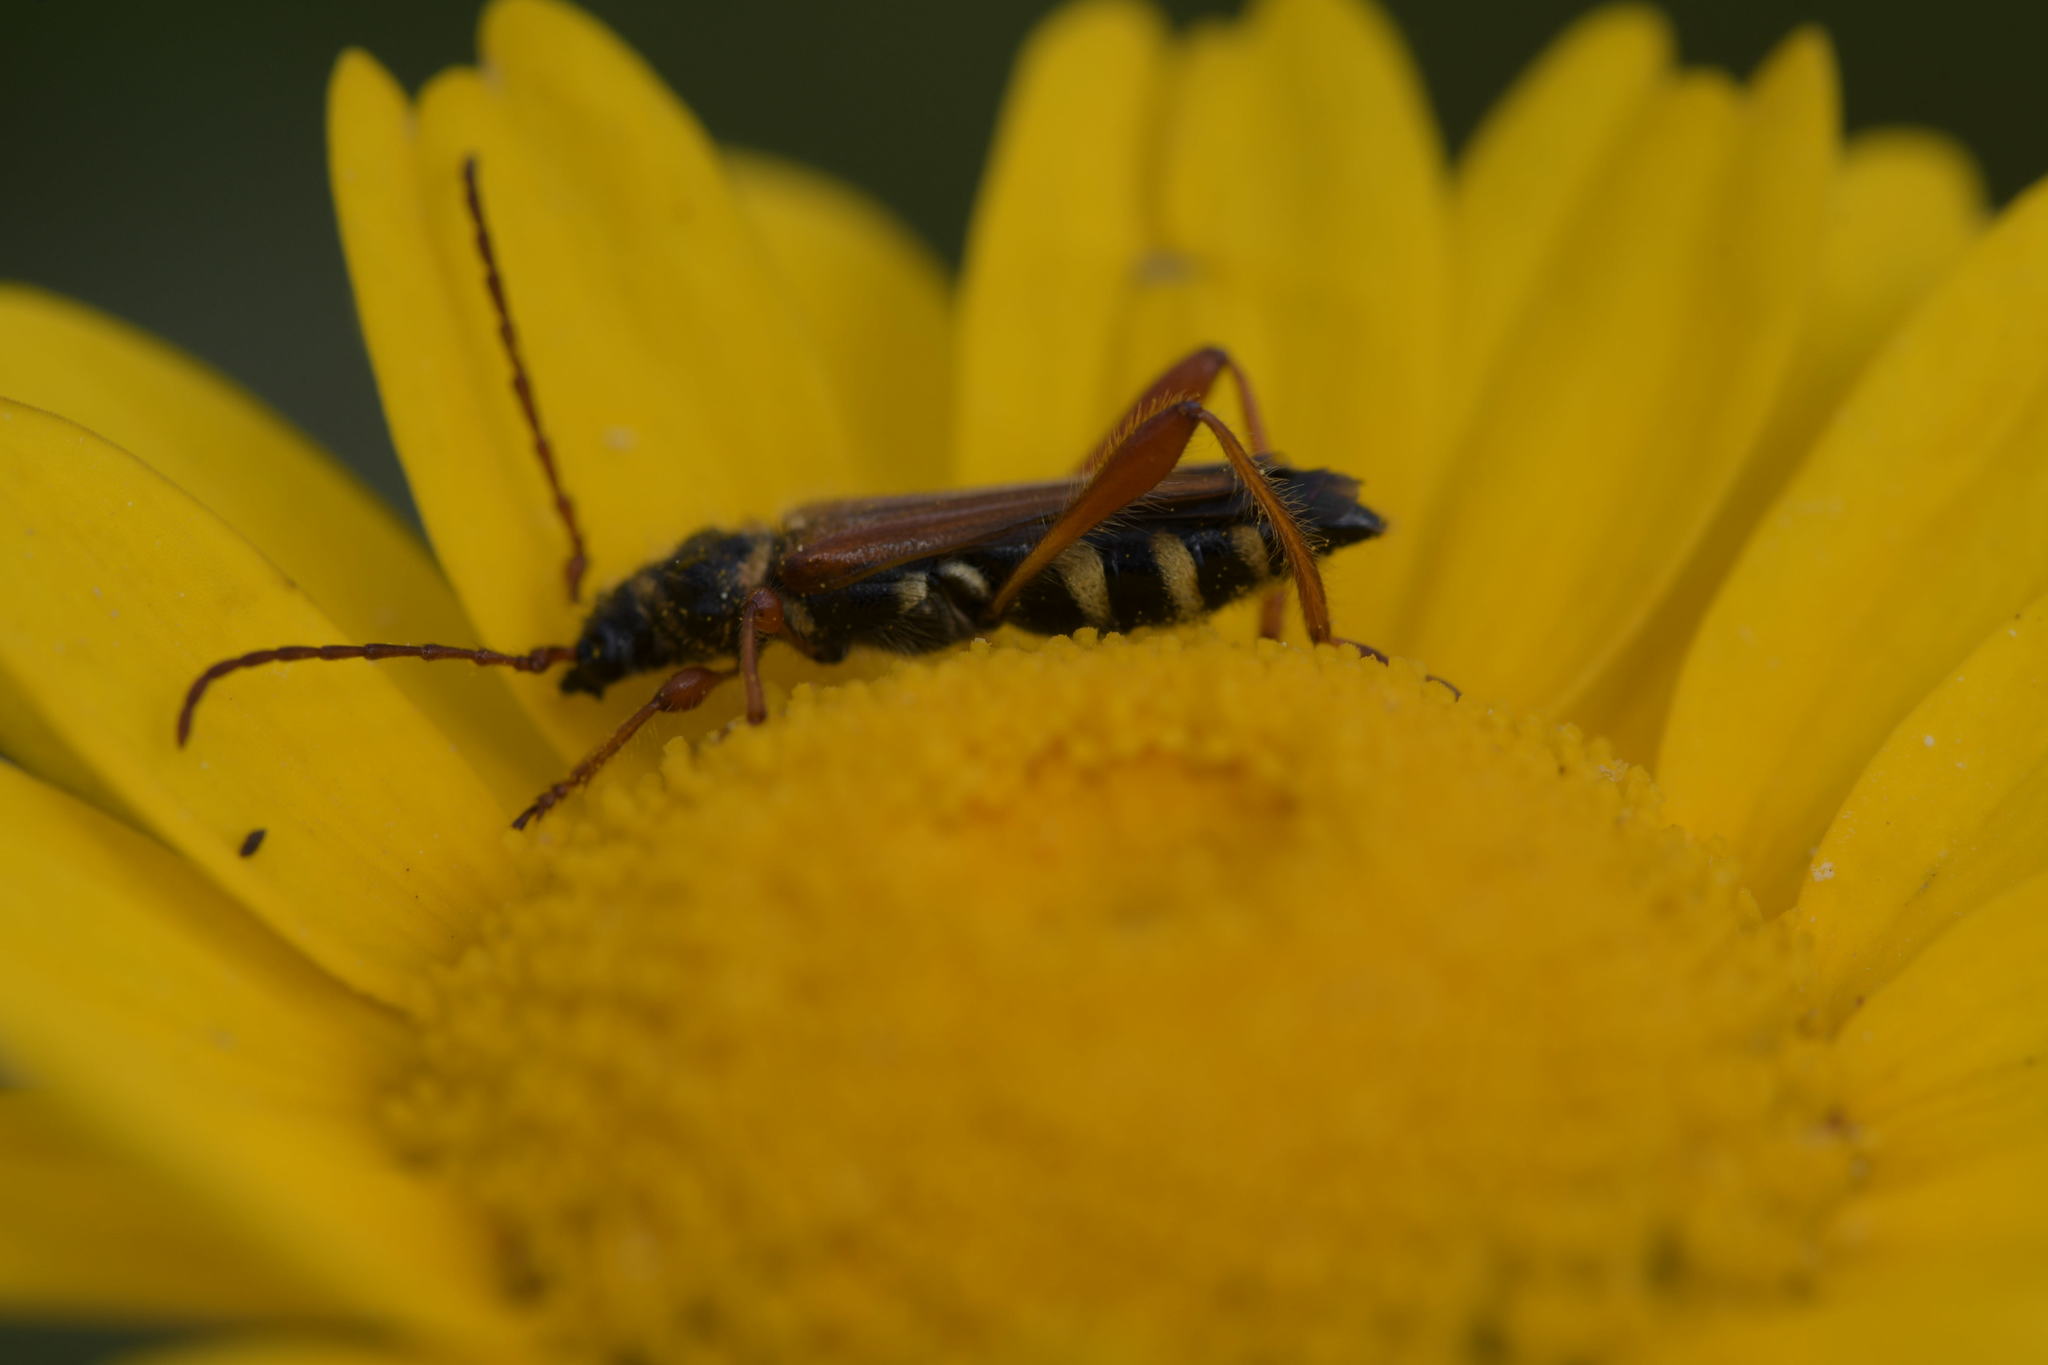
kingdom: Animalia
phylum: Arthropoda
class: Insecta
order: Coleoptera
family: Cerambycidae
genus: Stenopterus
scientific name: Stenopterus mauritanicus
